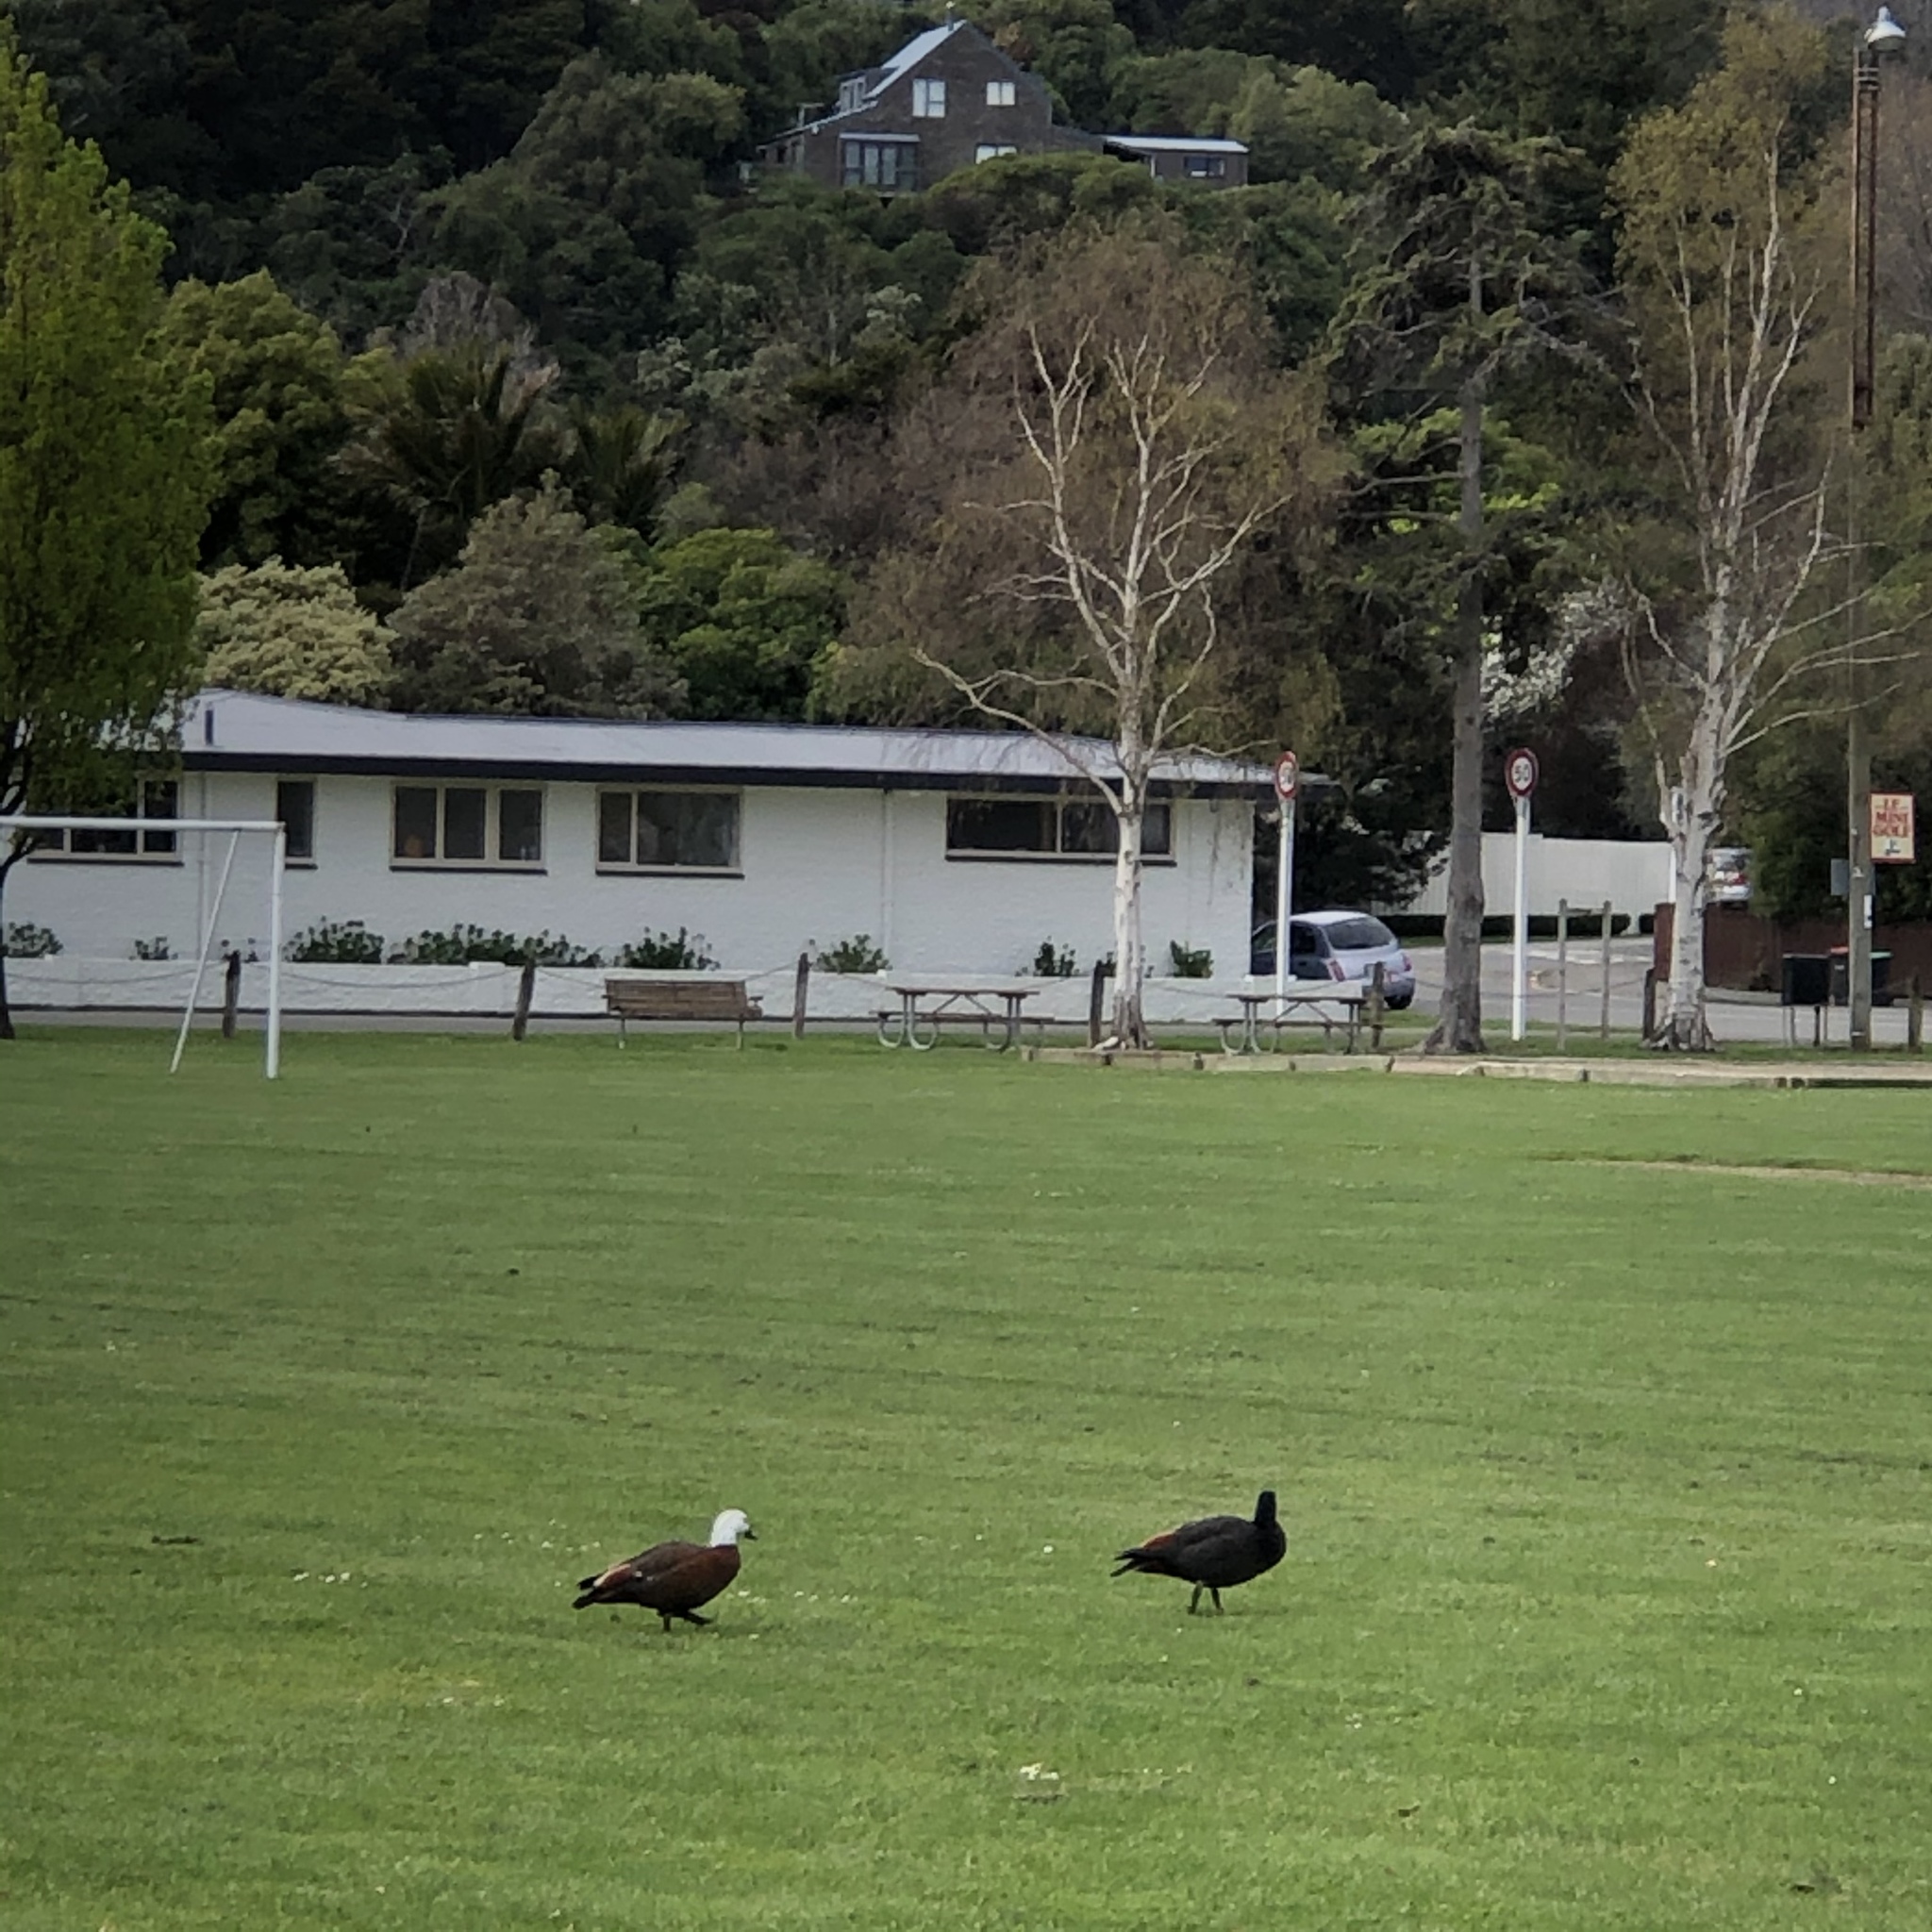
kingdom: Animalia
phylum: Chordata
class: Aves
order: Anseriformes
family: Anatidae
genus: Tadorna
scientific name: Tadorna variegata
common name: Paradise shelduck
